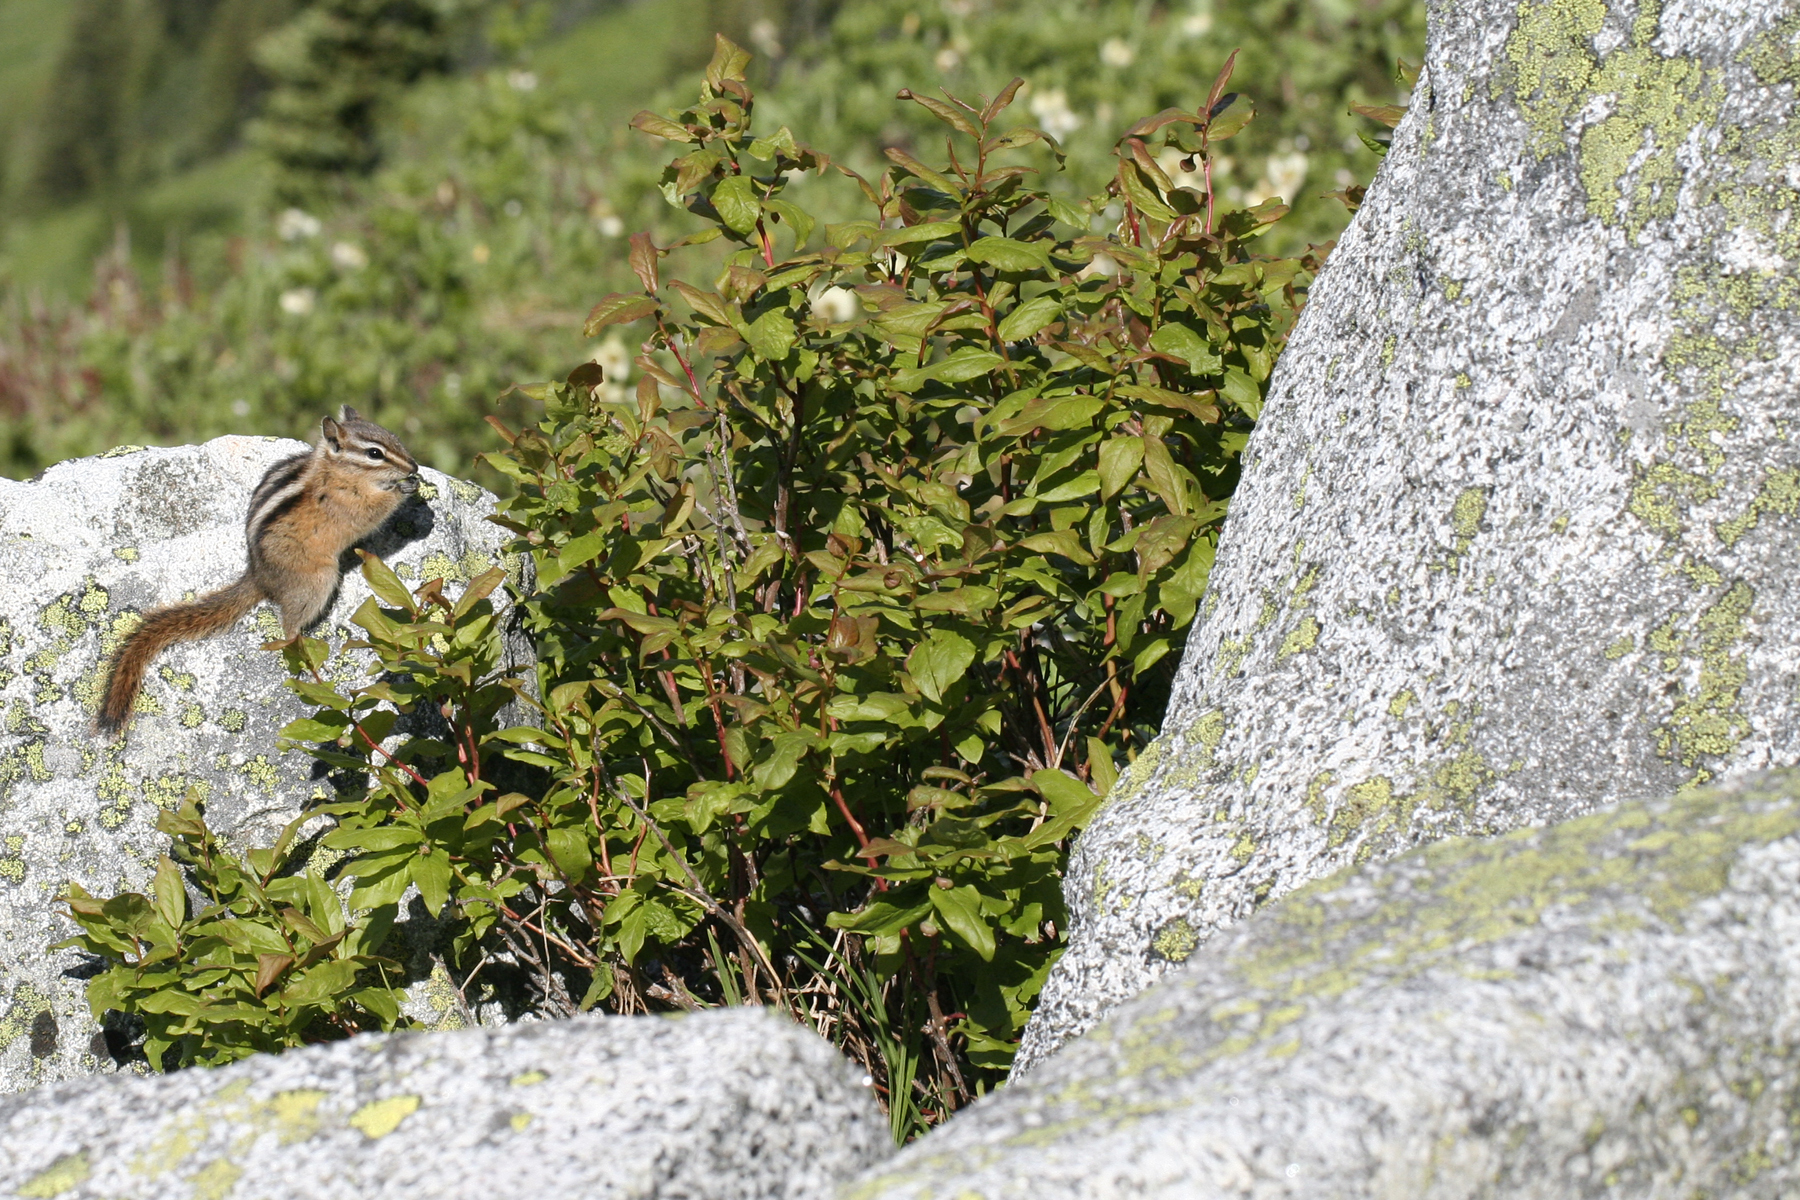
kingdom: Animalia
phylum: Chordata
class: Mammalia
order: Rodentia
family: Sciuridae
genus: Tamias
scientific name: Tamias amoenus
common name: Yellow-pine chipmunk
